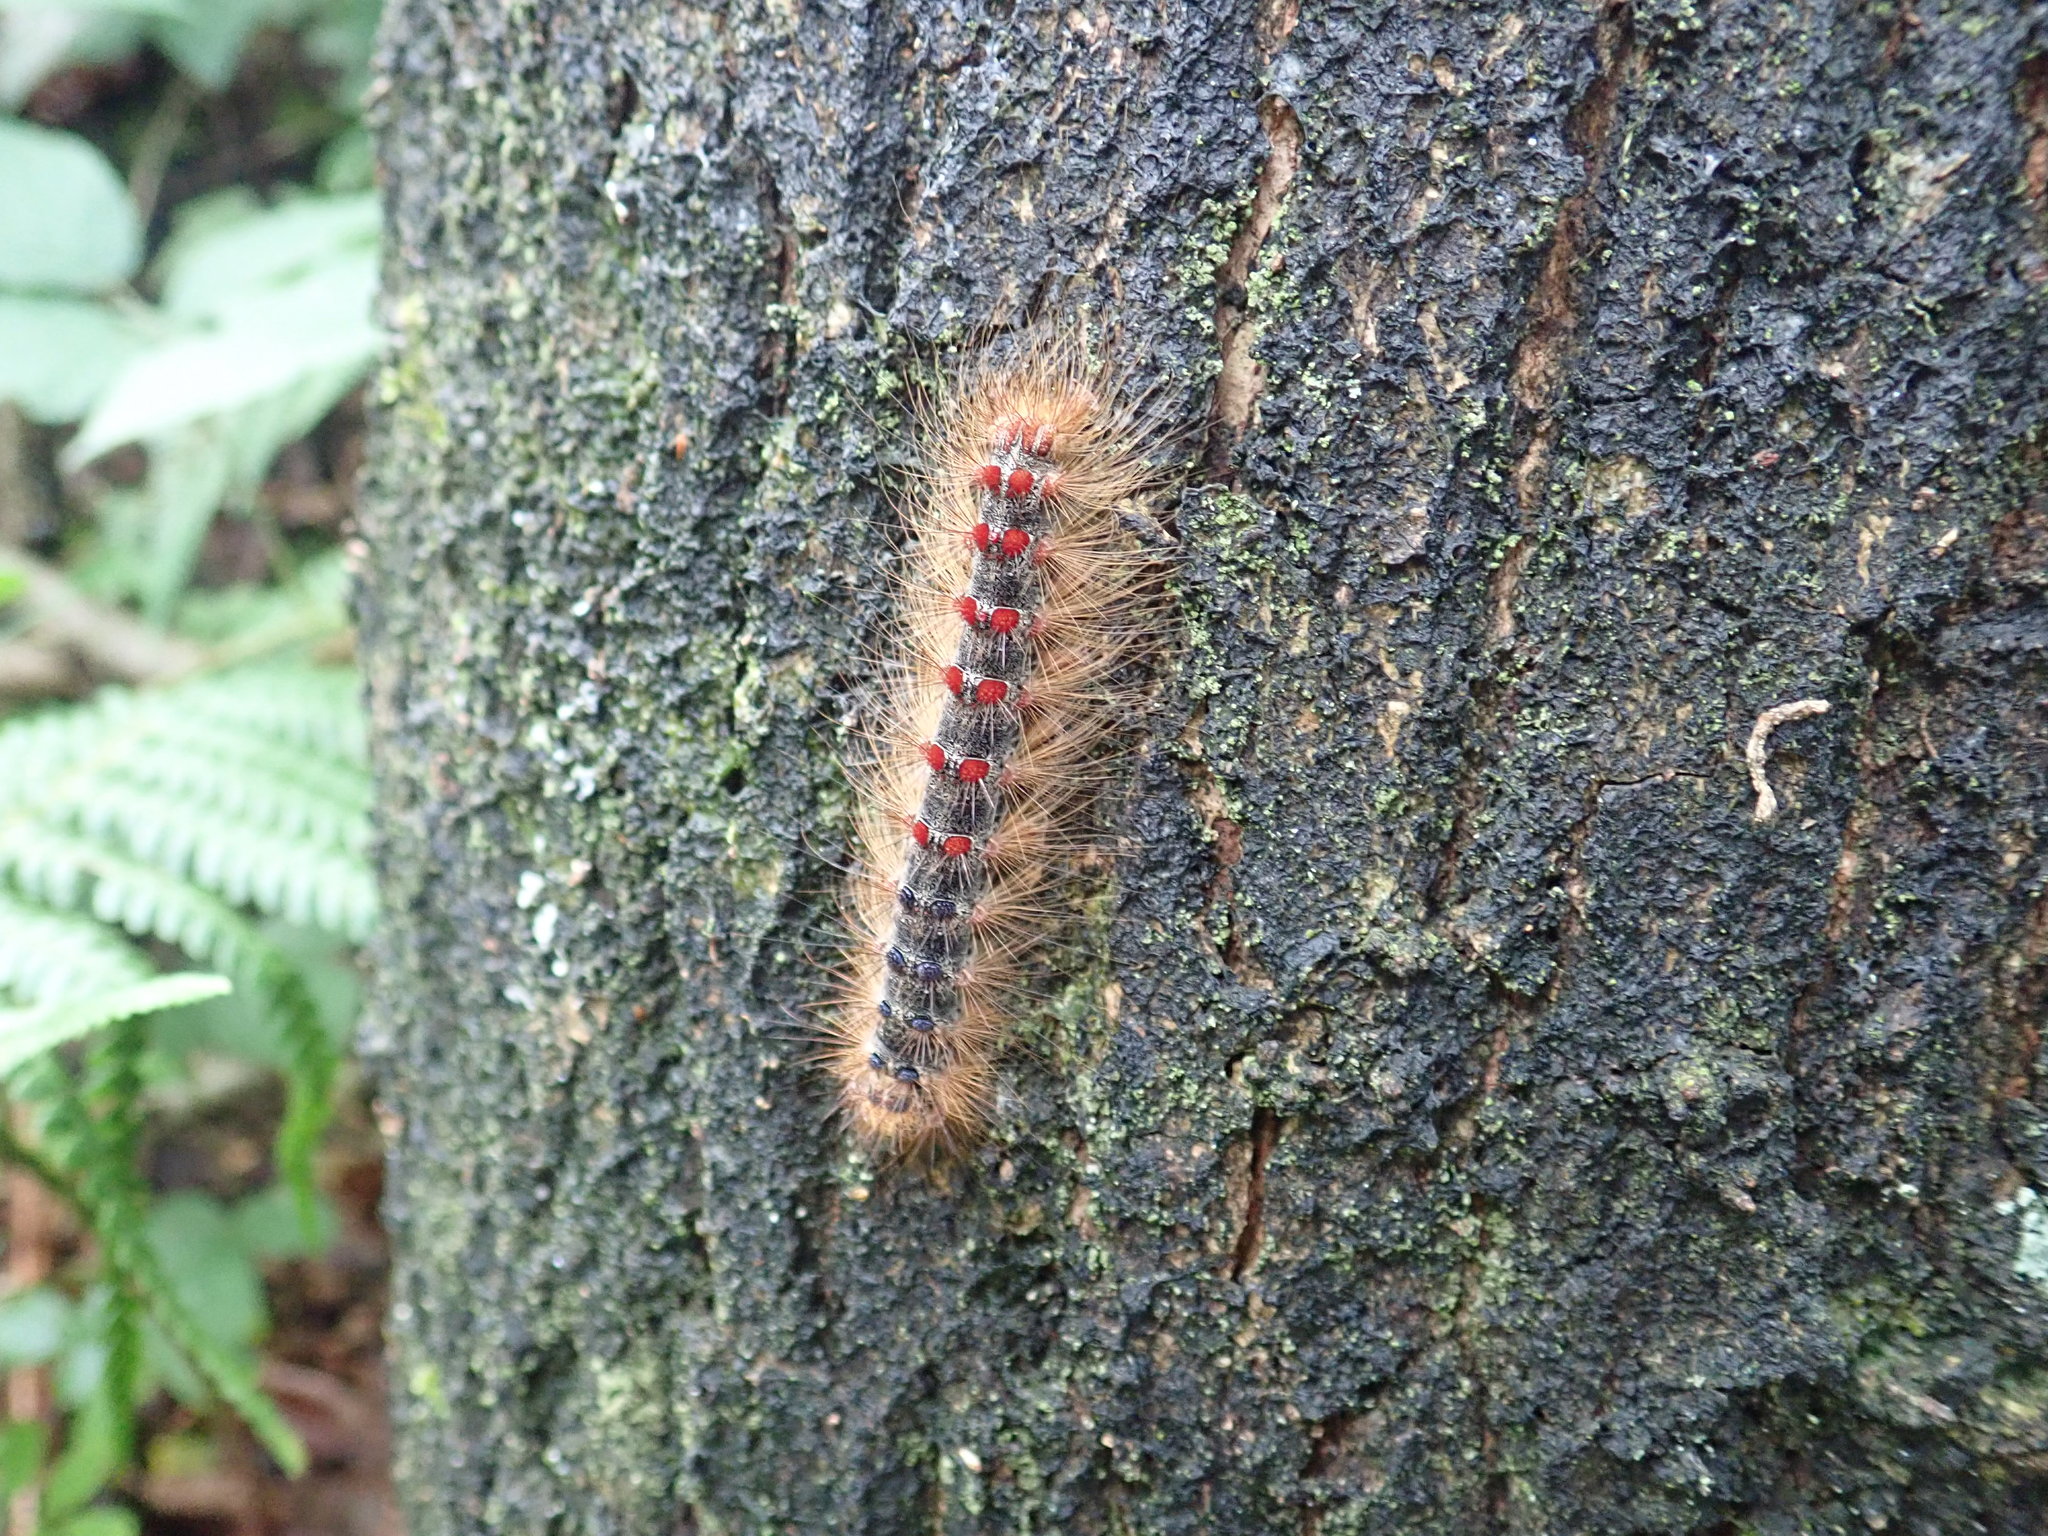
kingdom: Animalia
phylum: Arthropoda
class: Insecta
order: Lepidoptera
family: Erebidae
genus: Lymantria
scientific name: Lymantria dispar
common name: Gypsy moth
